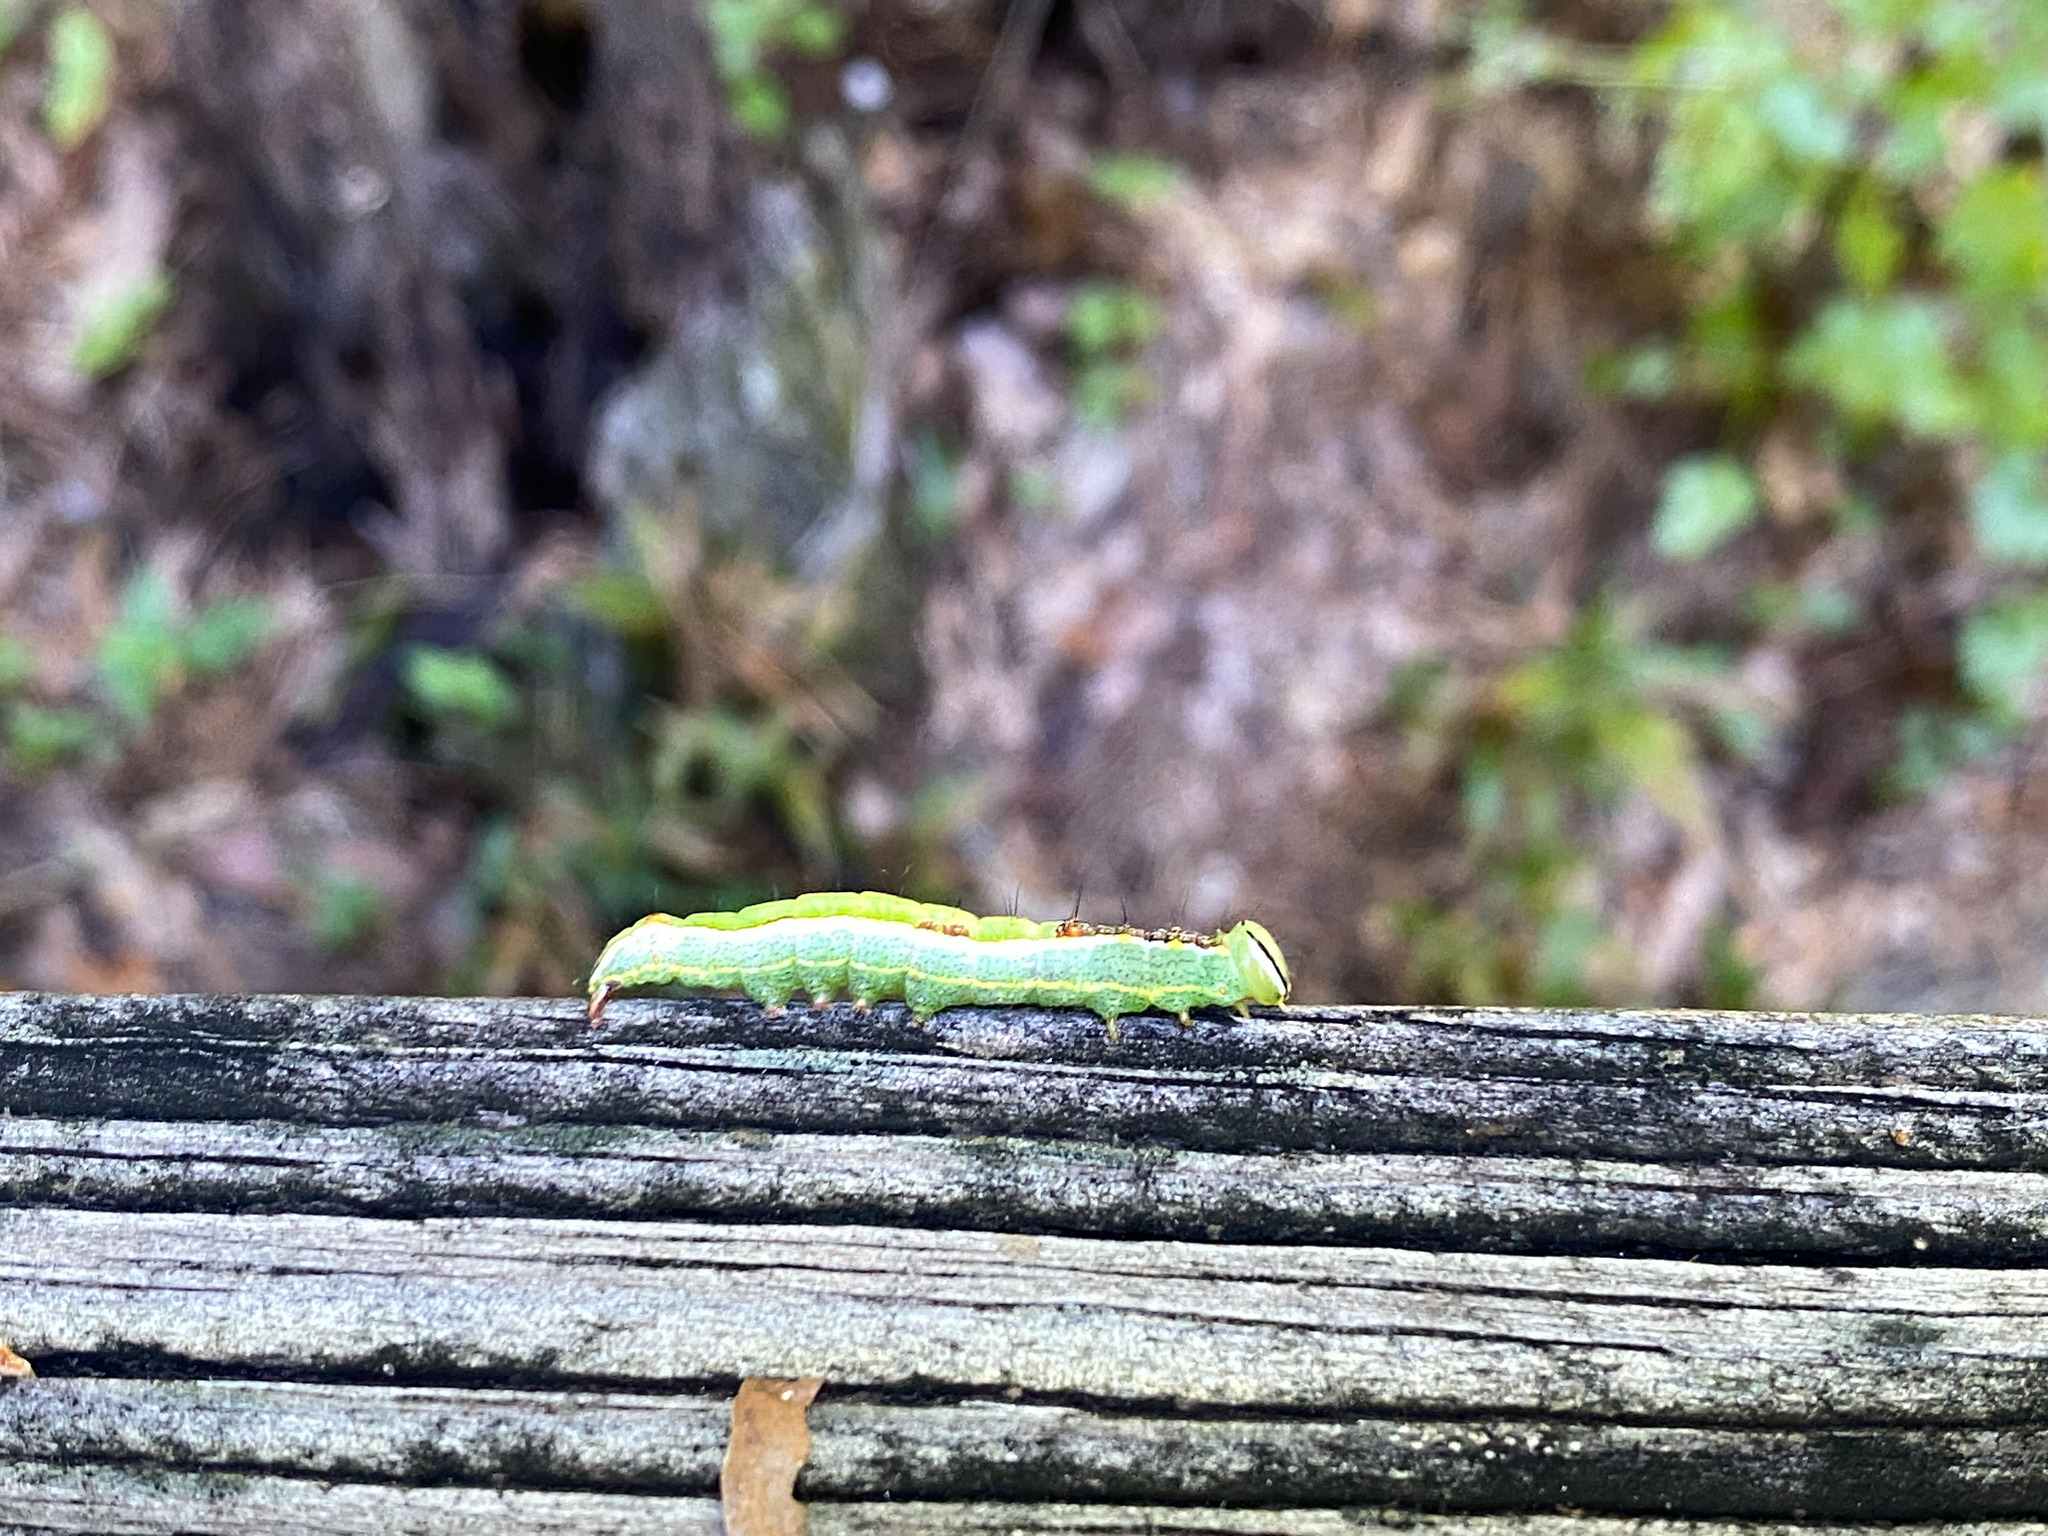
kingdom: Animalia
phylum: Arthropoda
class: Insecta
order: Lepidoptera
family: Notodontidae
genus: Lochmaeus
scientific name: Lochmaeus manteo
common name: Variable oakleaf caterpillar moth
